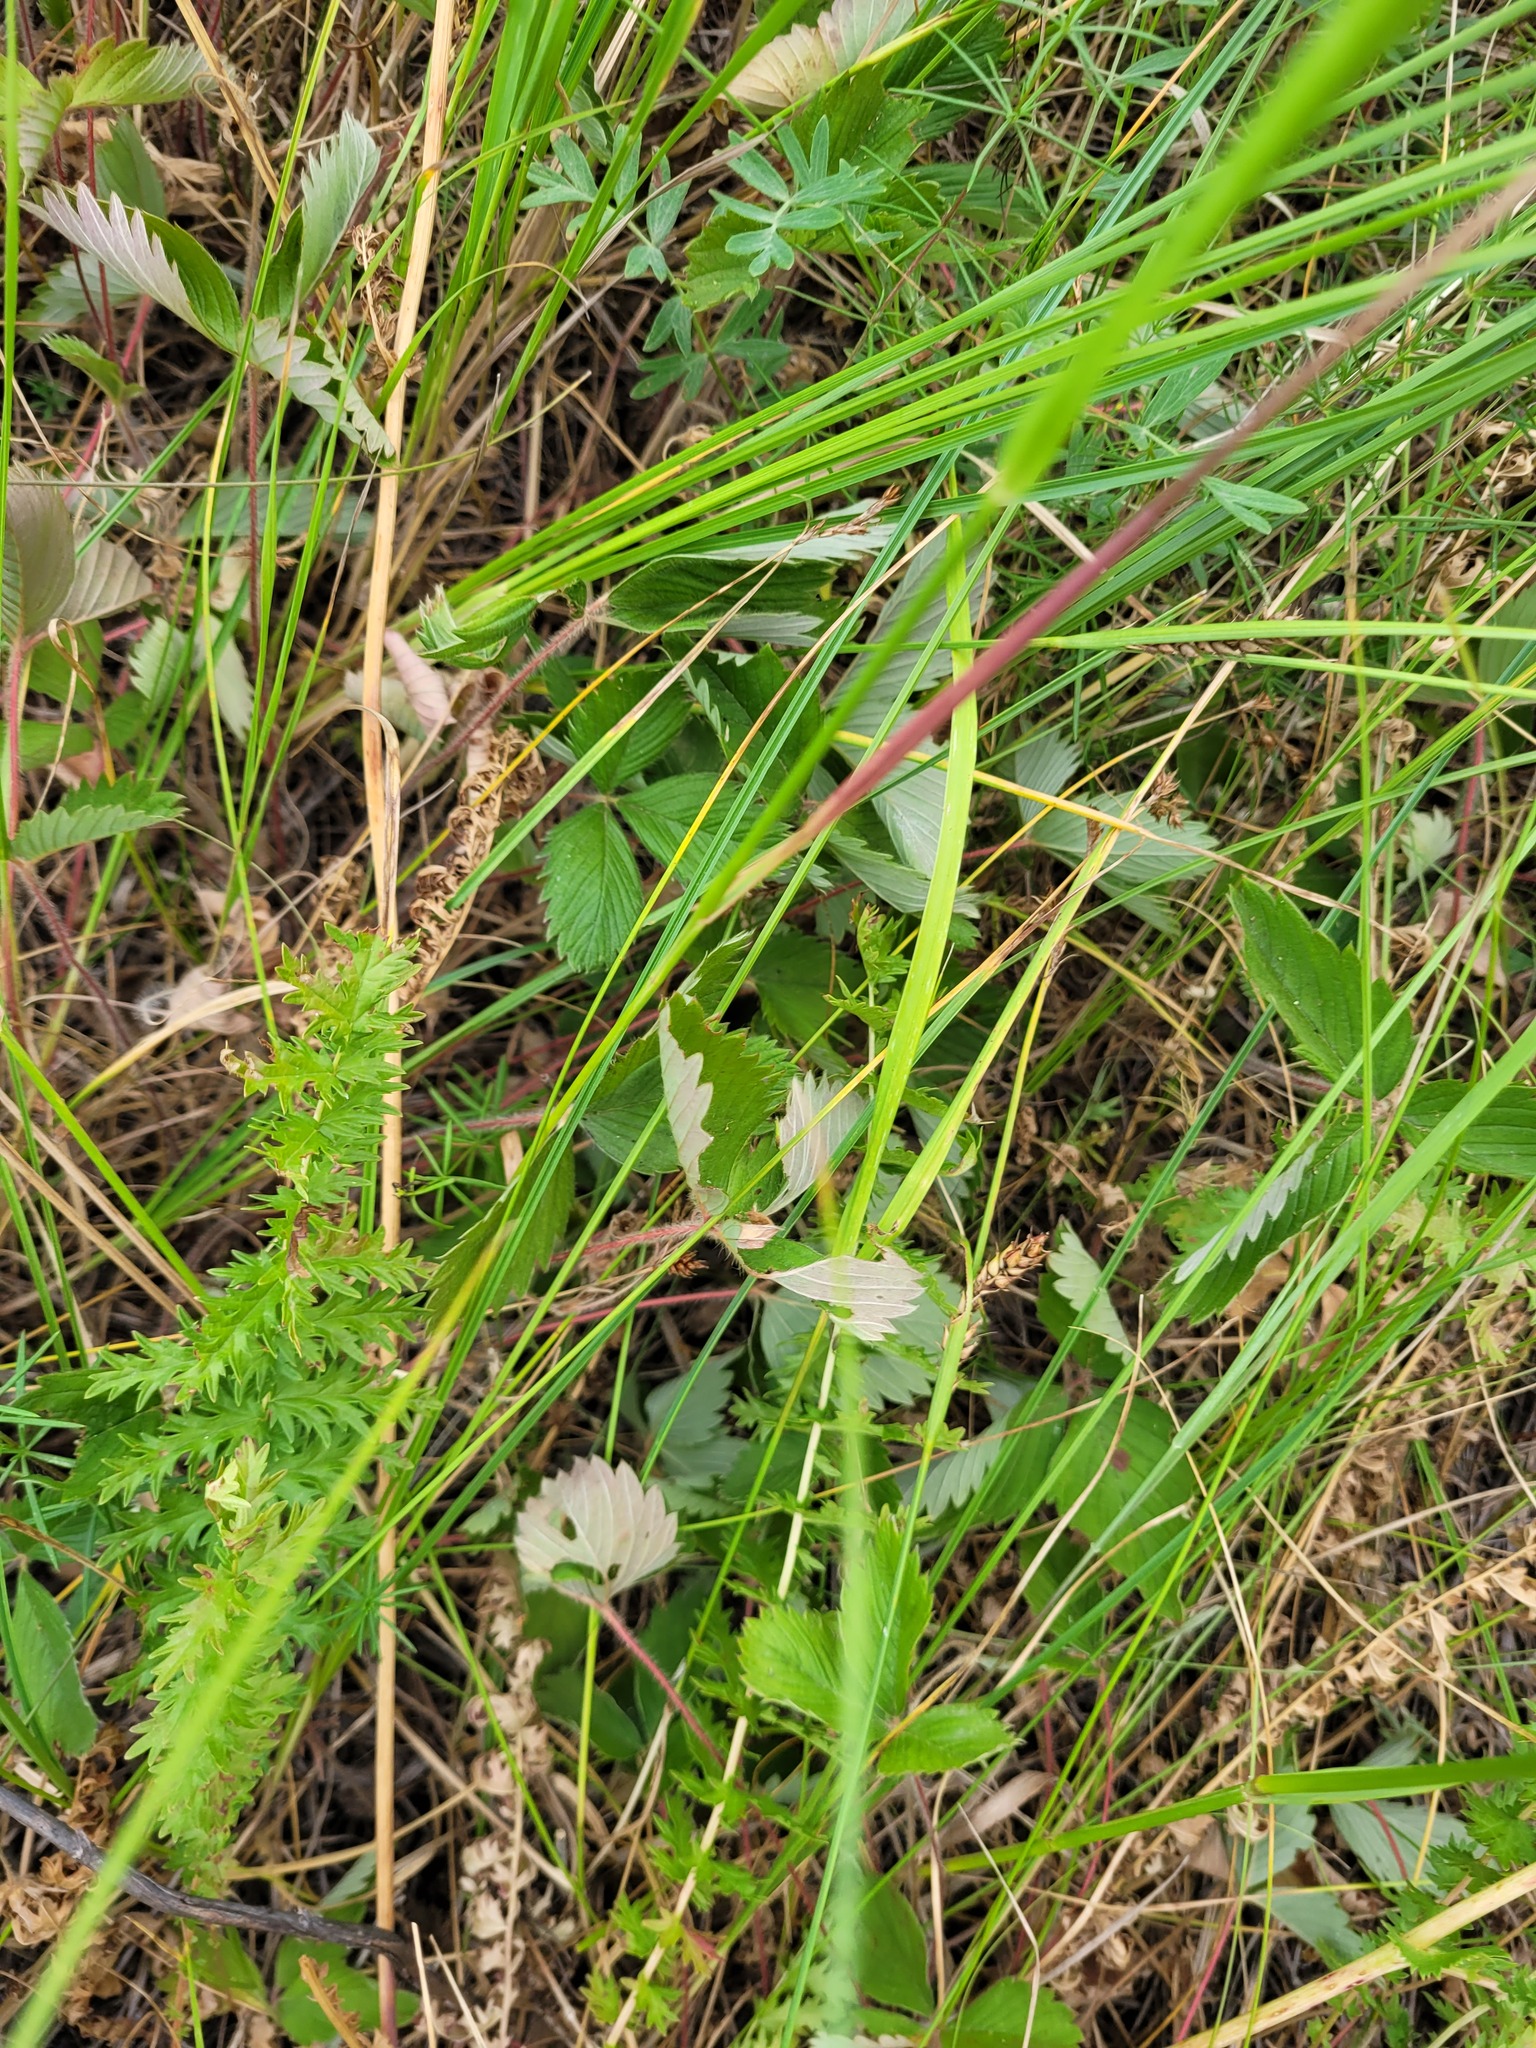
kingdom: Plantae
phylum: Tracheophyta
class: Magnoliopsida
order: Rosales
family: Rosaceae
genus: Fragaria
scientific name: Fragaria viridis
